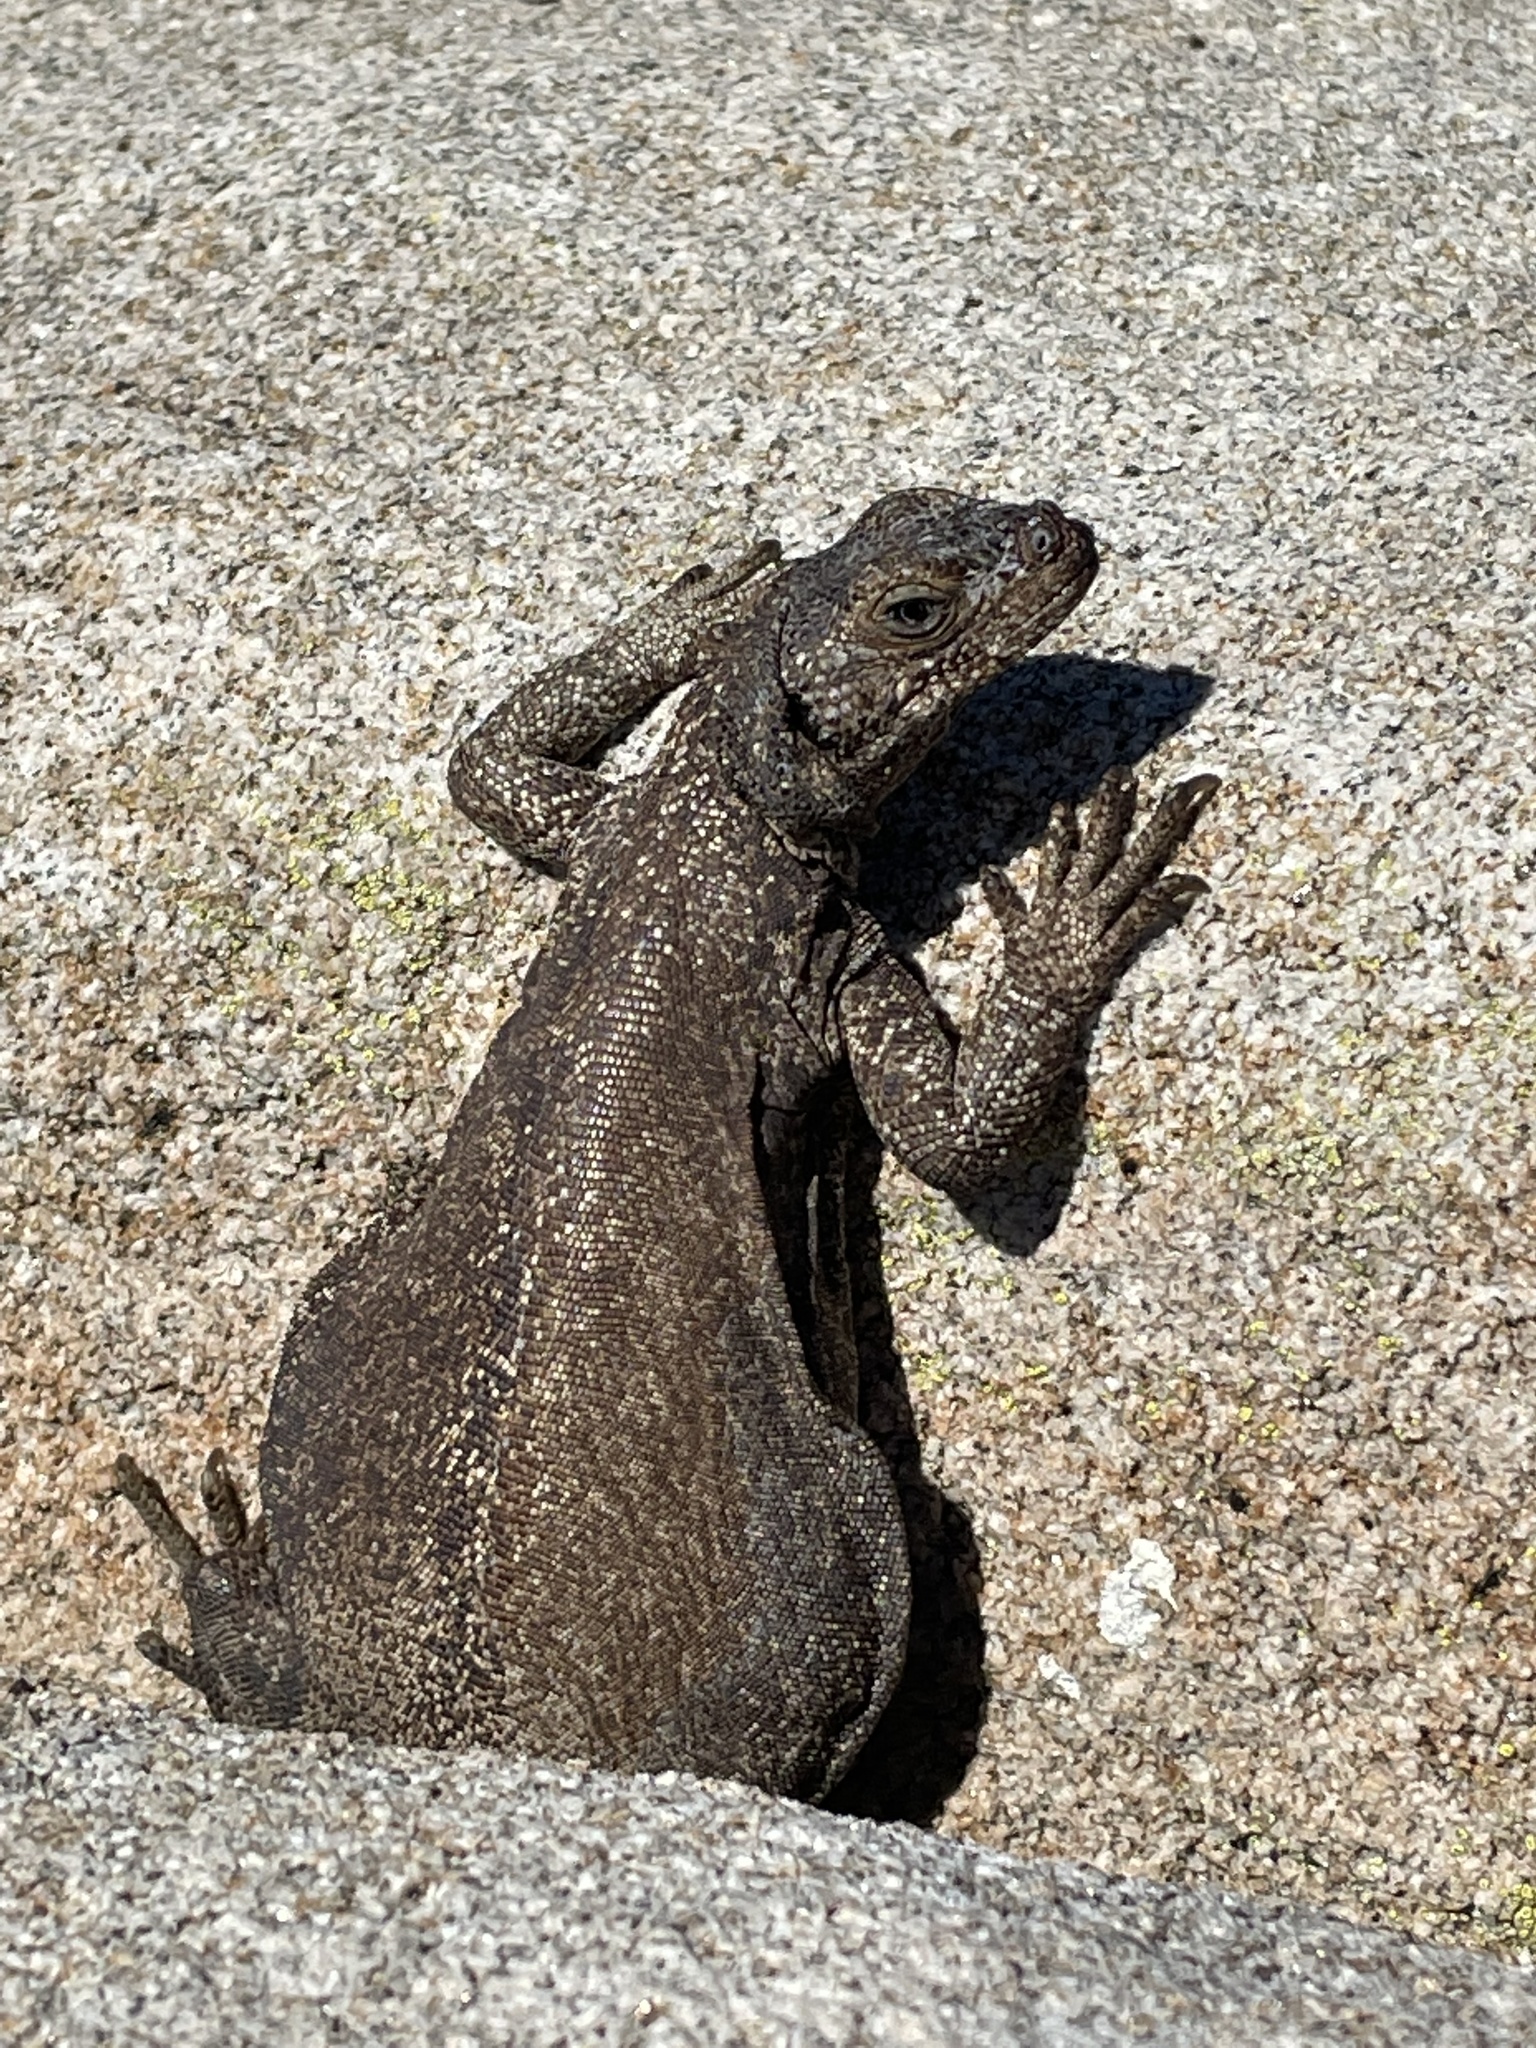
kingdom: Animalia
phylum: Chordata
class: Squamata
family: Iguanidae
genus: Sauromalus
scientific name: Sauromalus ater
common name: Northern chuckwalla
